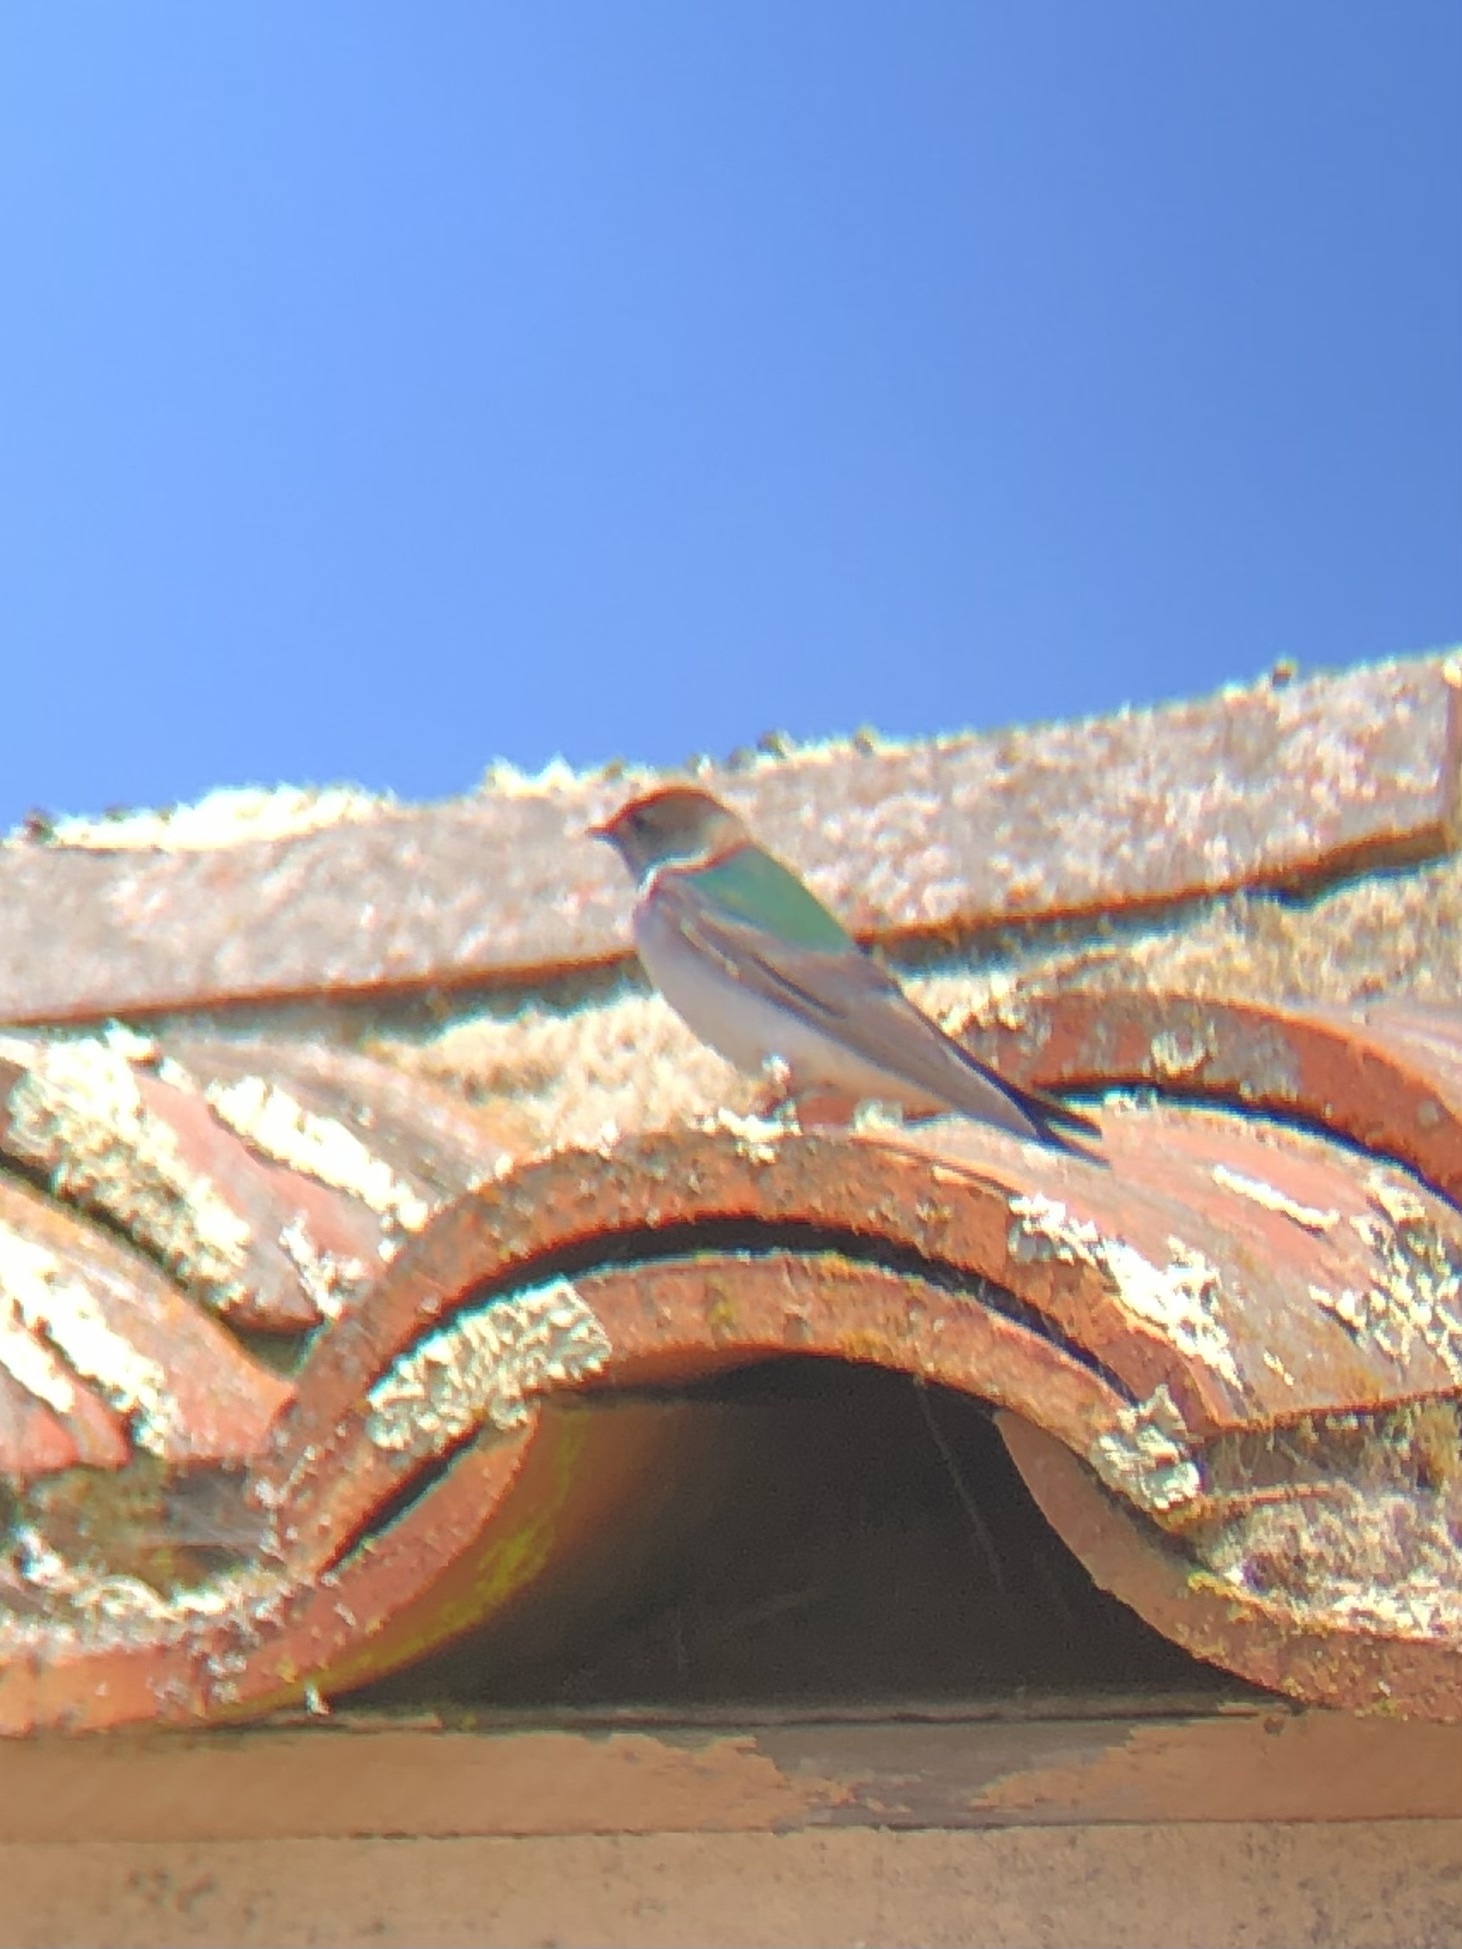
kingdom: Animalia
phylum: Chordata
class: Aves
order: Passeriformes
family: Hirundinidae
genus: Tachycineta
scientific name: Tachycineta thalassina
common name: Violet-green swallow
